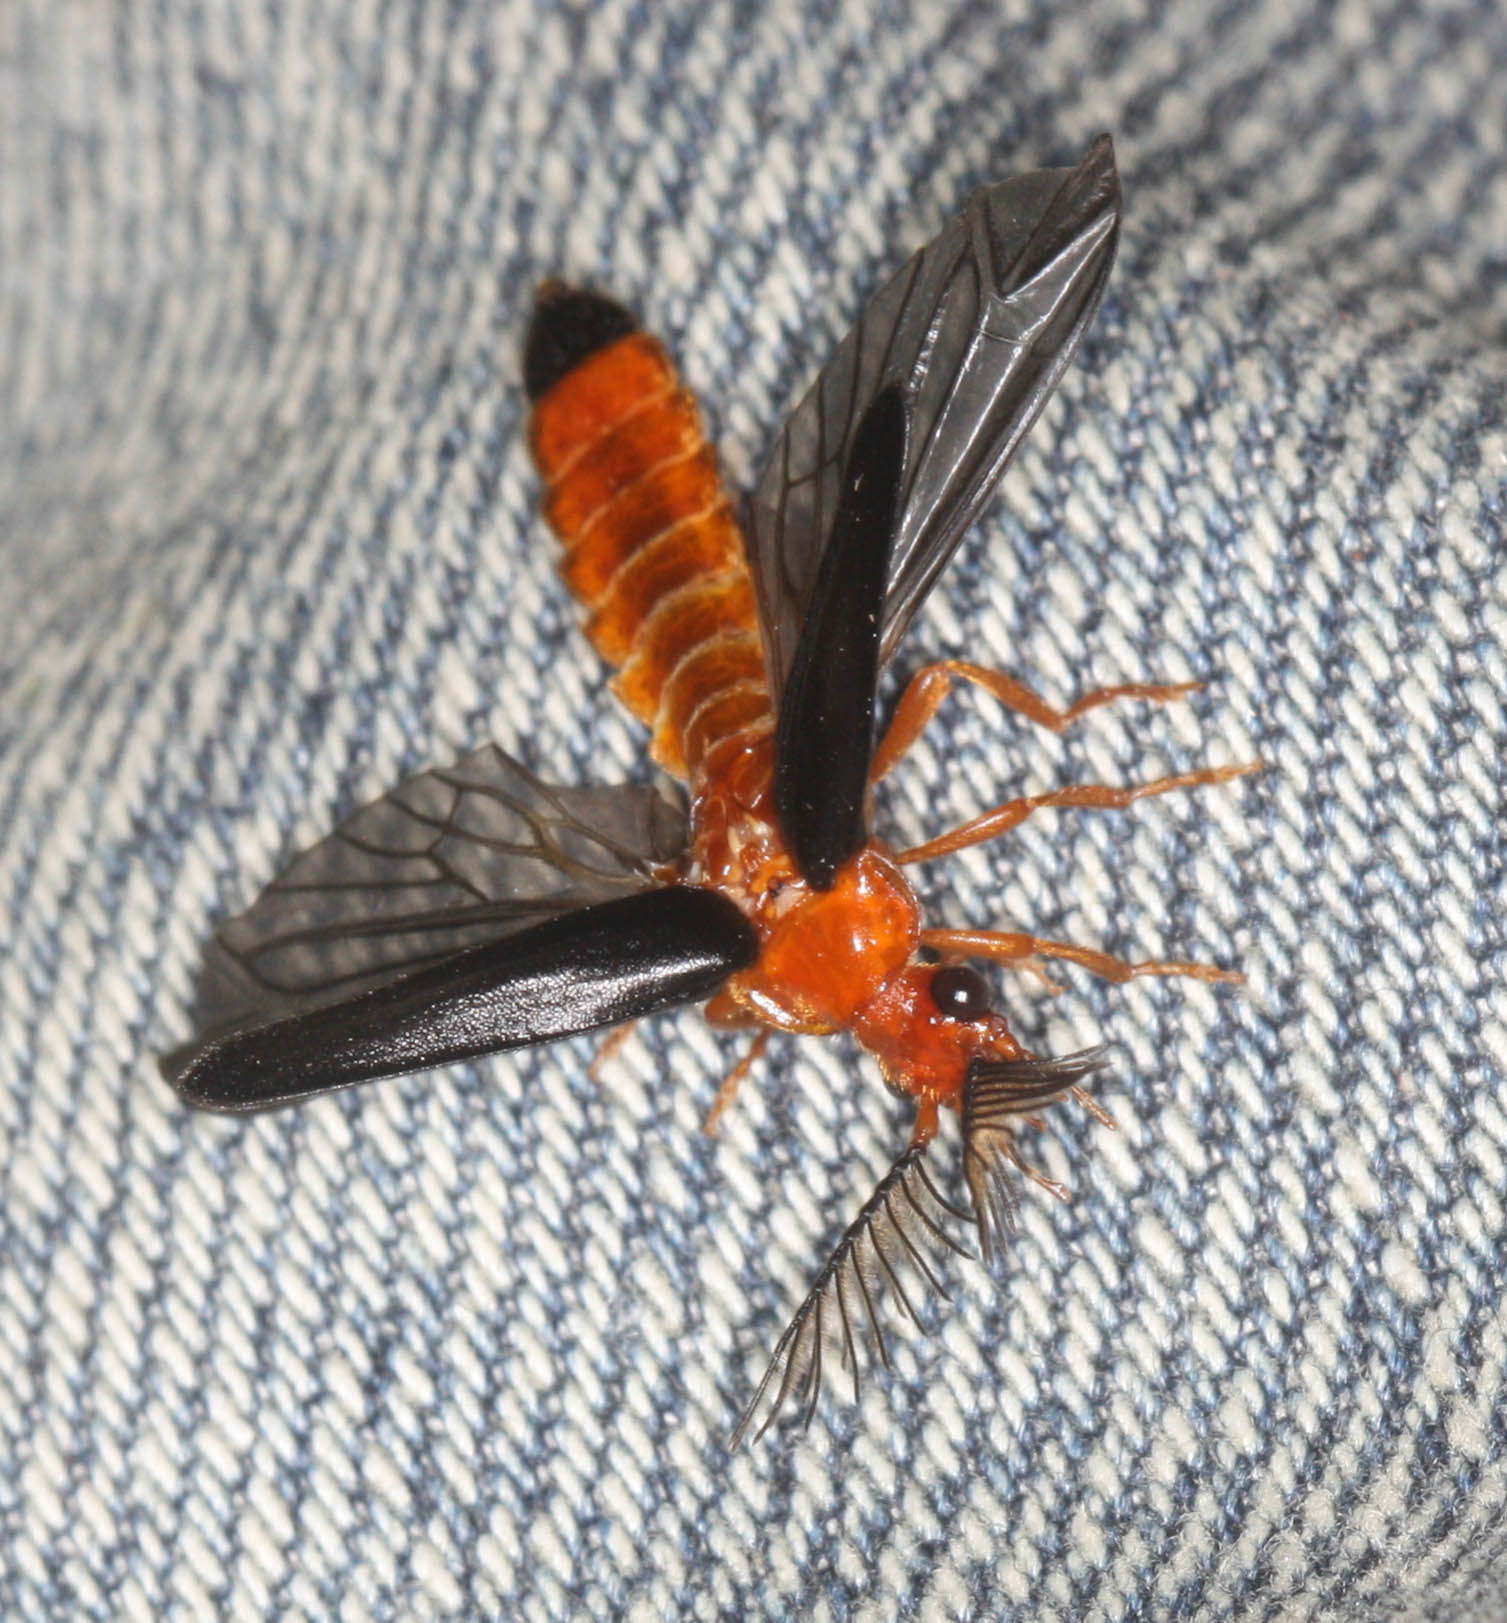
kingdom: Animalia
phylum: Arthropoda
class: Insecta
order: Coleoptera
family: Phengodidae
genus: Zarhipis
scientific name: Zarhipis integripennis
